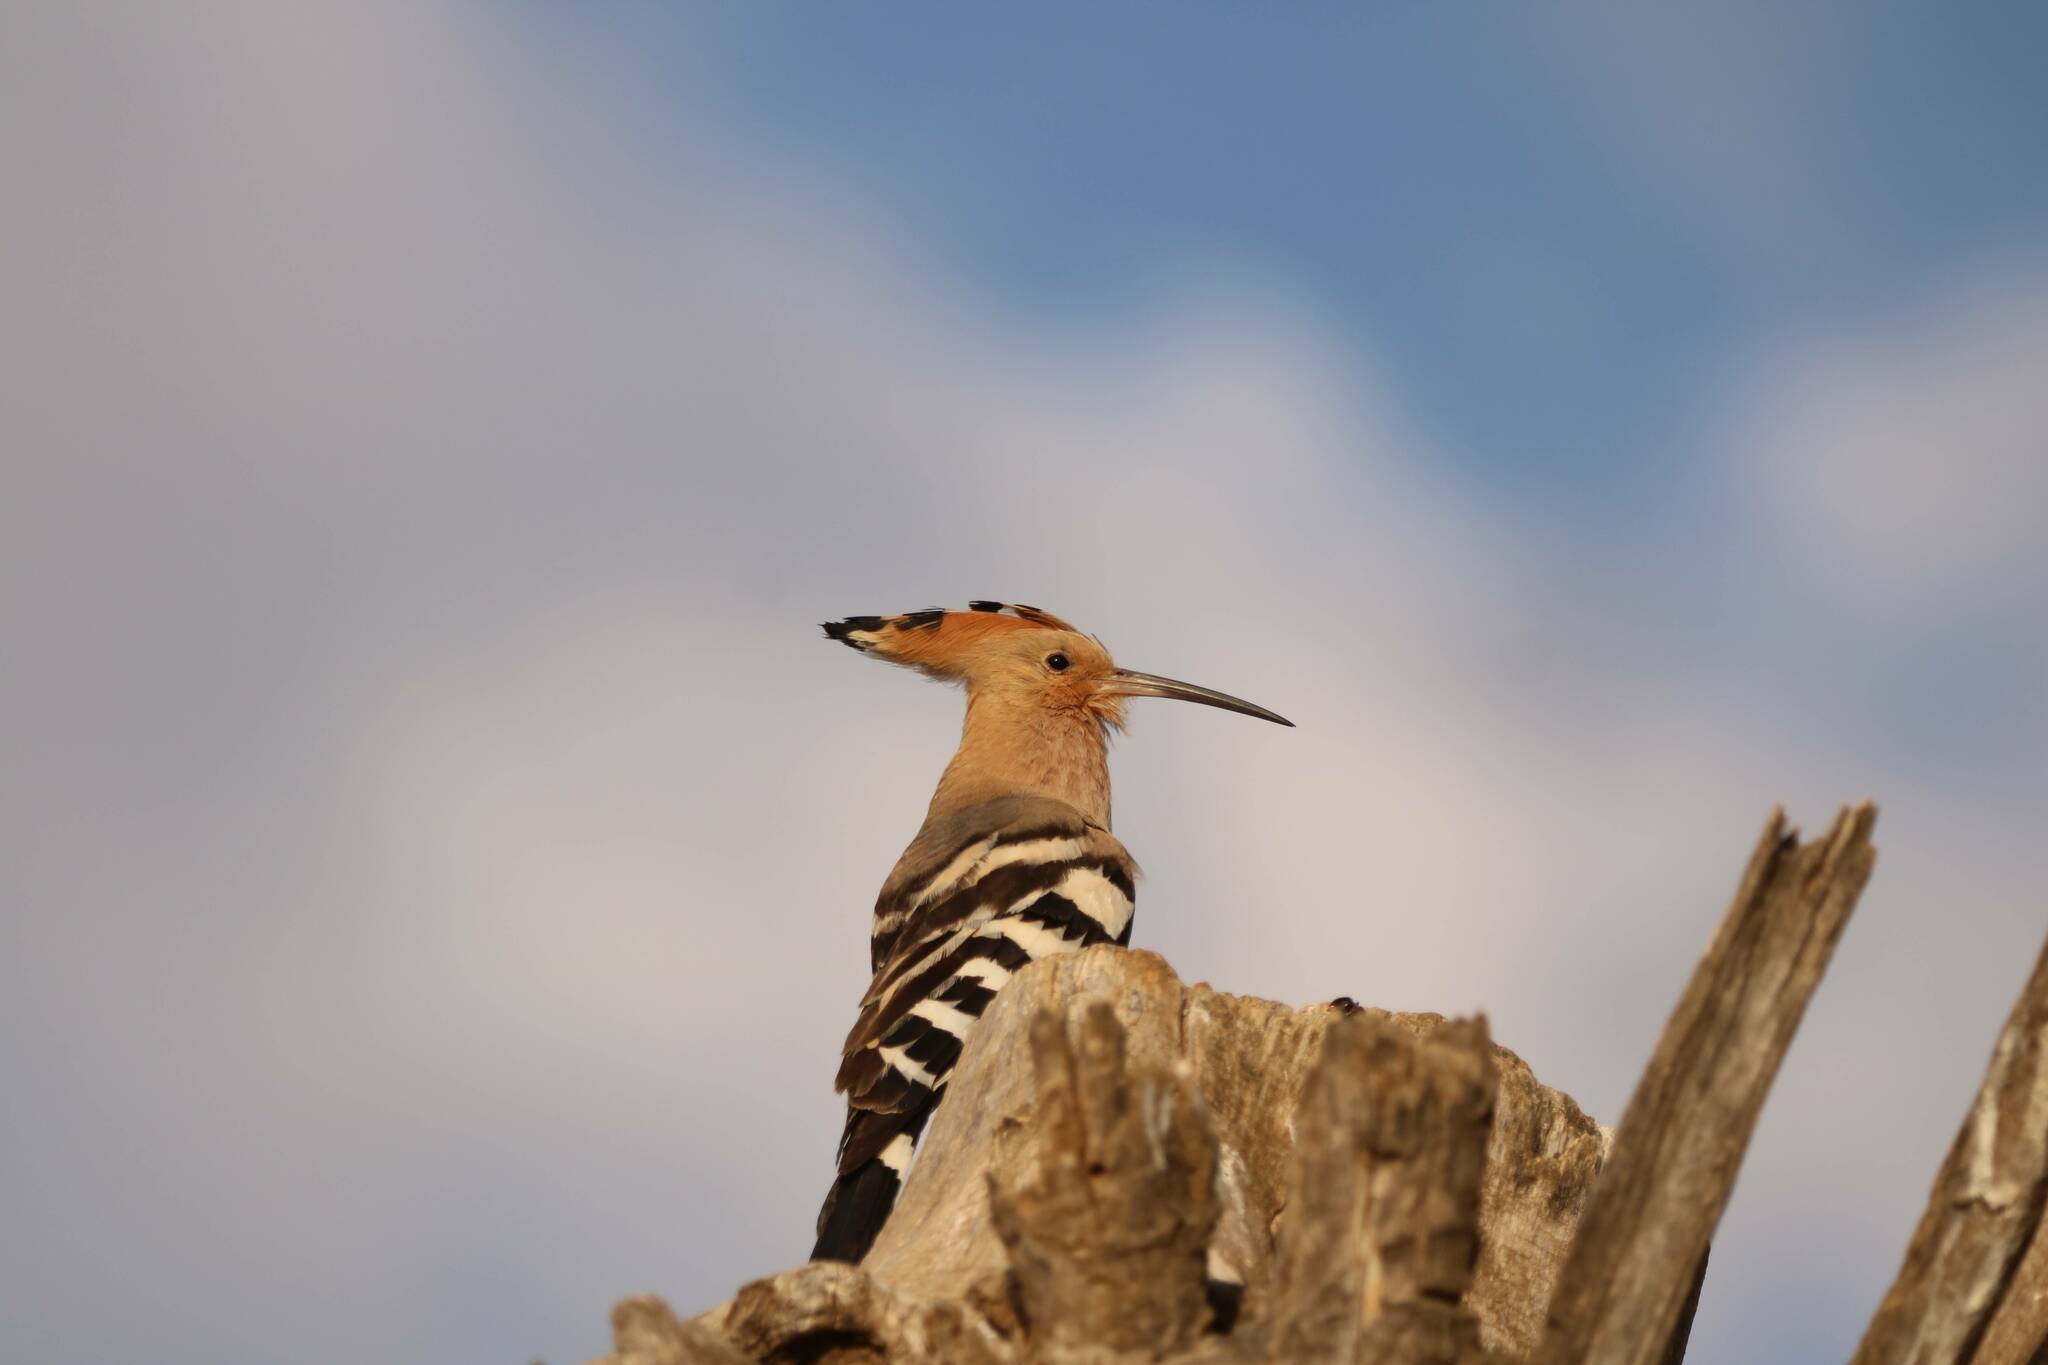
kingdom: Animalia
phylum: Chordata
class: Aves
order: Bucerotiformes
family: Upupidae
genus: Upupa
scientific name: Upupa epops
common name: Eurasian hoopoe
